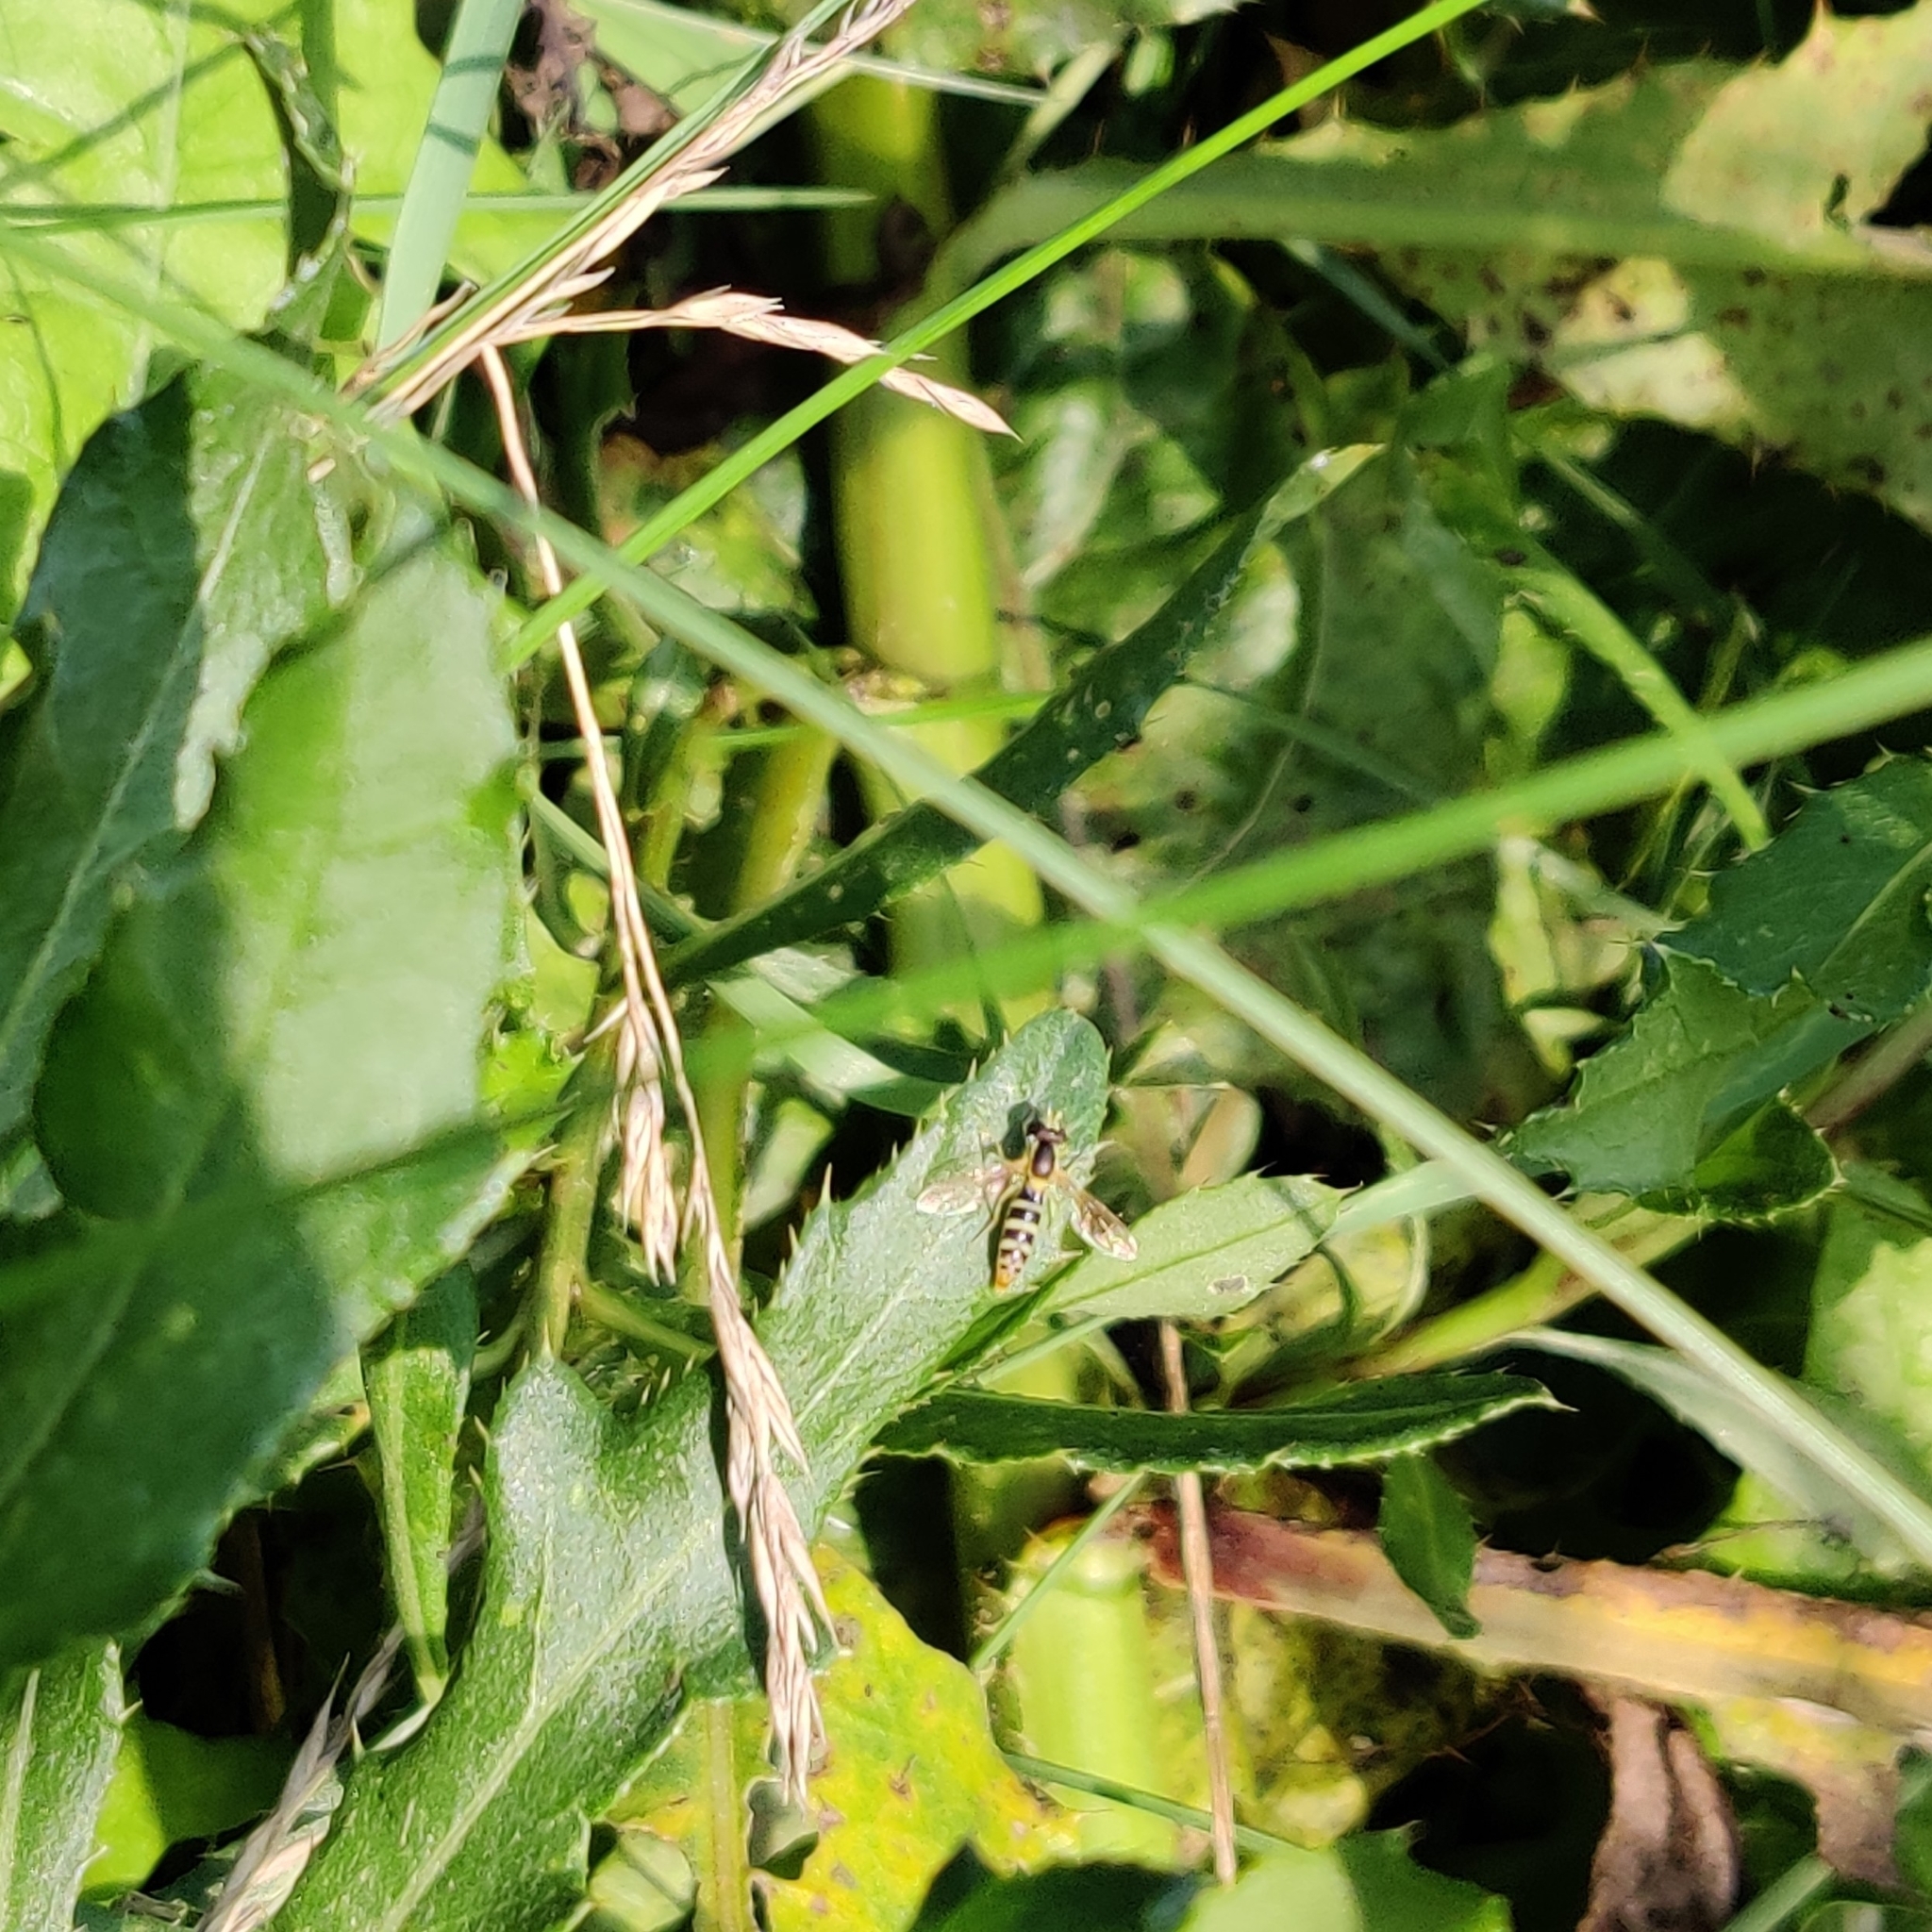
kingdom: Animalia
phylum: Arthropoda
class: Insecta
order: Diptera
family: Syrphidae
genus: Sphaerophoria
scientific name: Sphaerophoria
